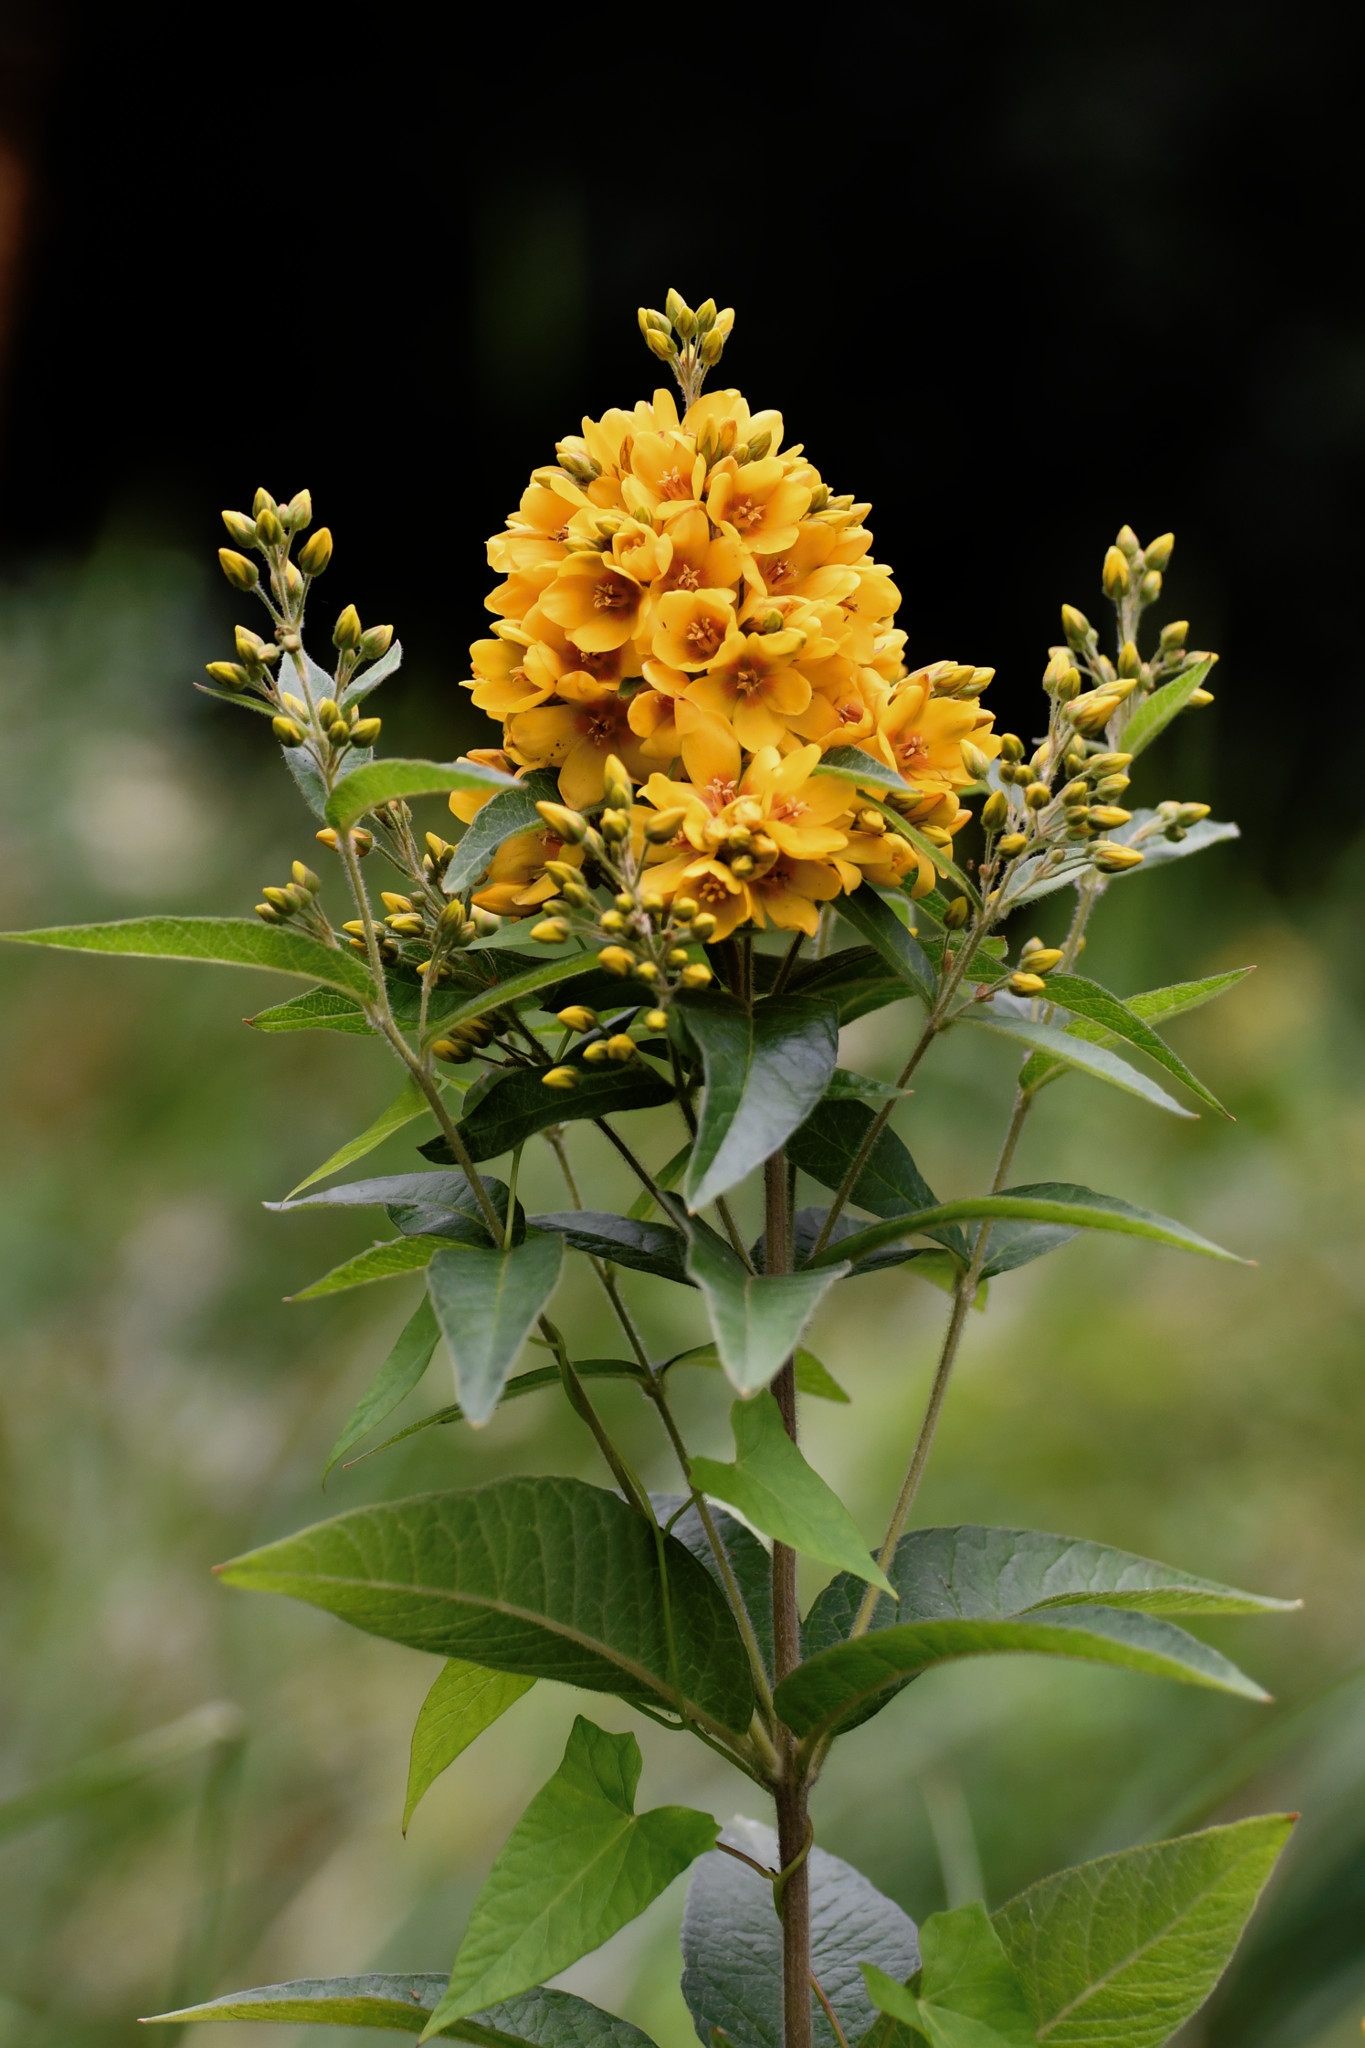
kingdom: Plantae
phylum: Tracheophyta
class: Magnoliopsida
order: Ericales
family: Primulaceae
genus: Lysimachia
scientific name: Lysimachia vulgaris
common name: Yellow loosestrife
